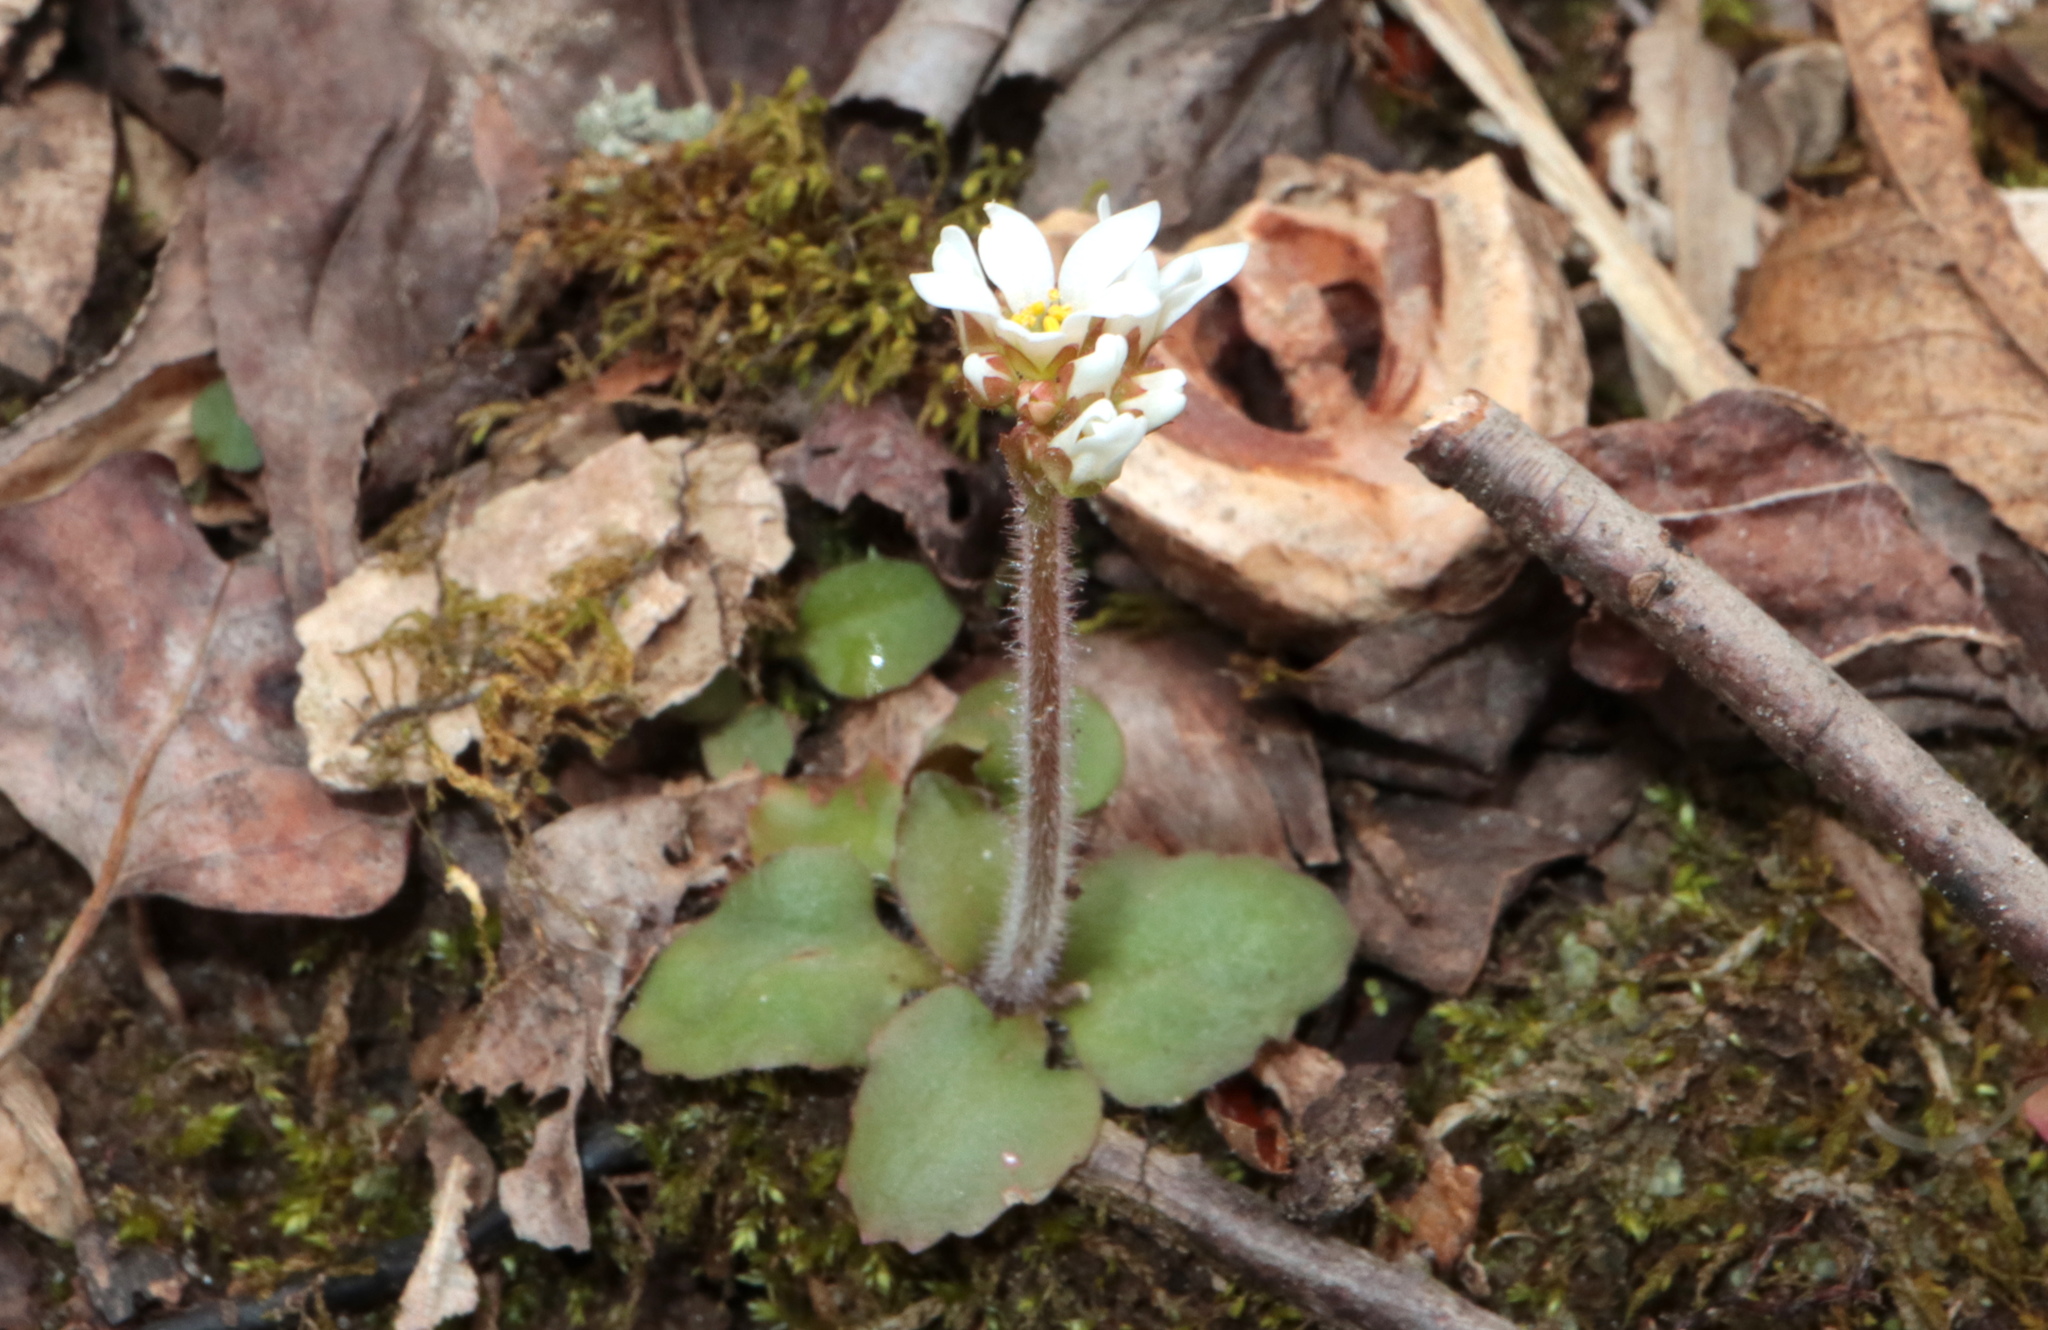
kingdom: Plantae
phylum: Tracheophyta
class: Magnoliopsida
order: Saxifragales
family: Saxifragaceae
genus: Micranthes
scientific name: Micranthes virginiensis
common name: Early saxifrage
